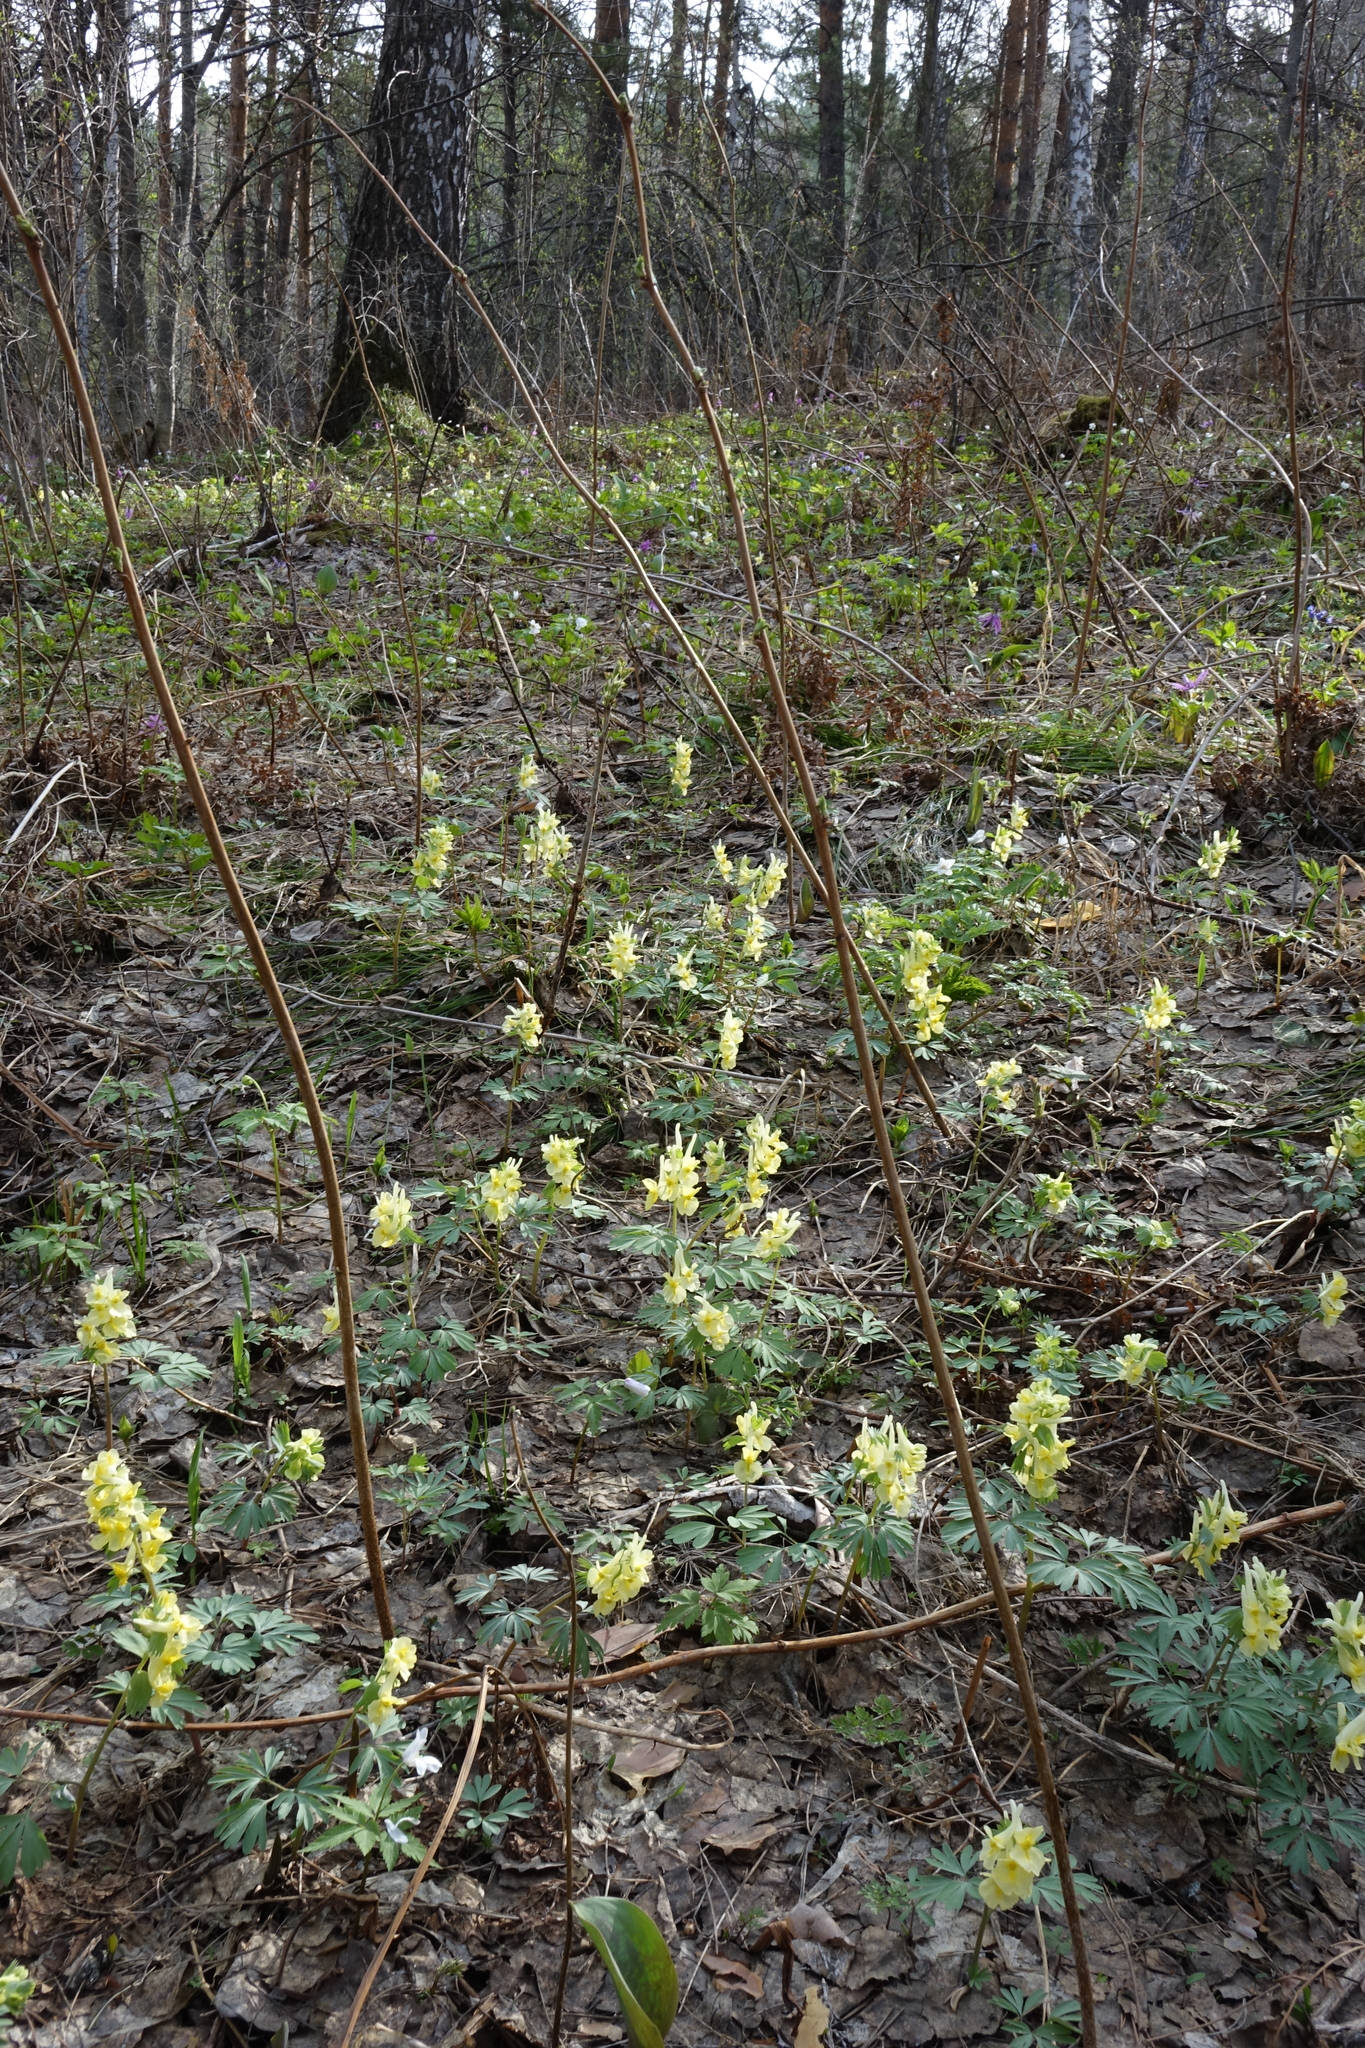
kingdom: Plantae
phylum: Tracheophyta
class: Magnoliopsida
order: Ranunculales
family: Papaveraceae
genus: Corydalis
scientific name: Corydalis bracteata
